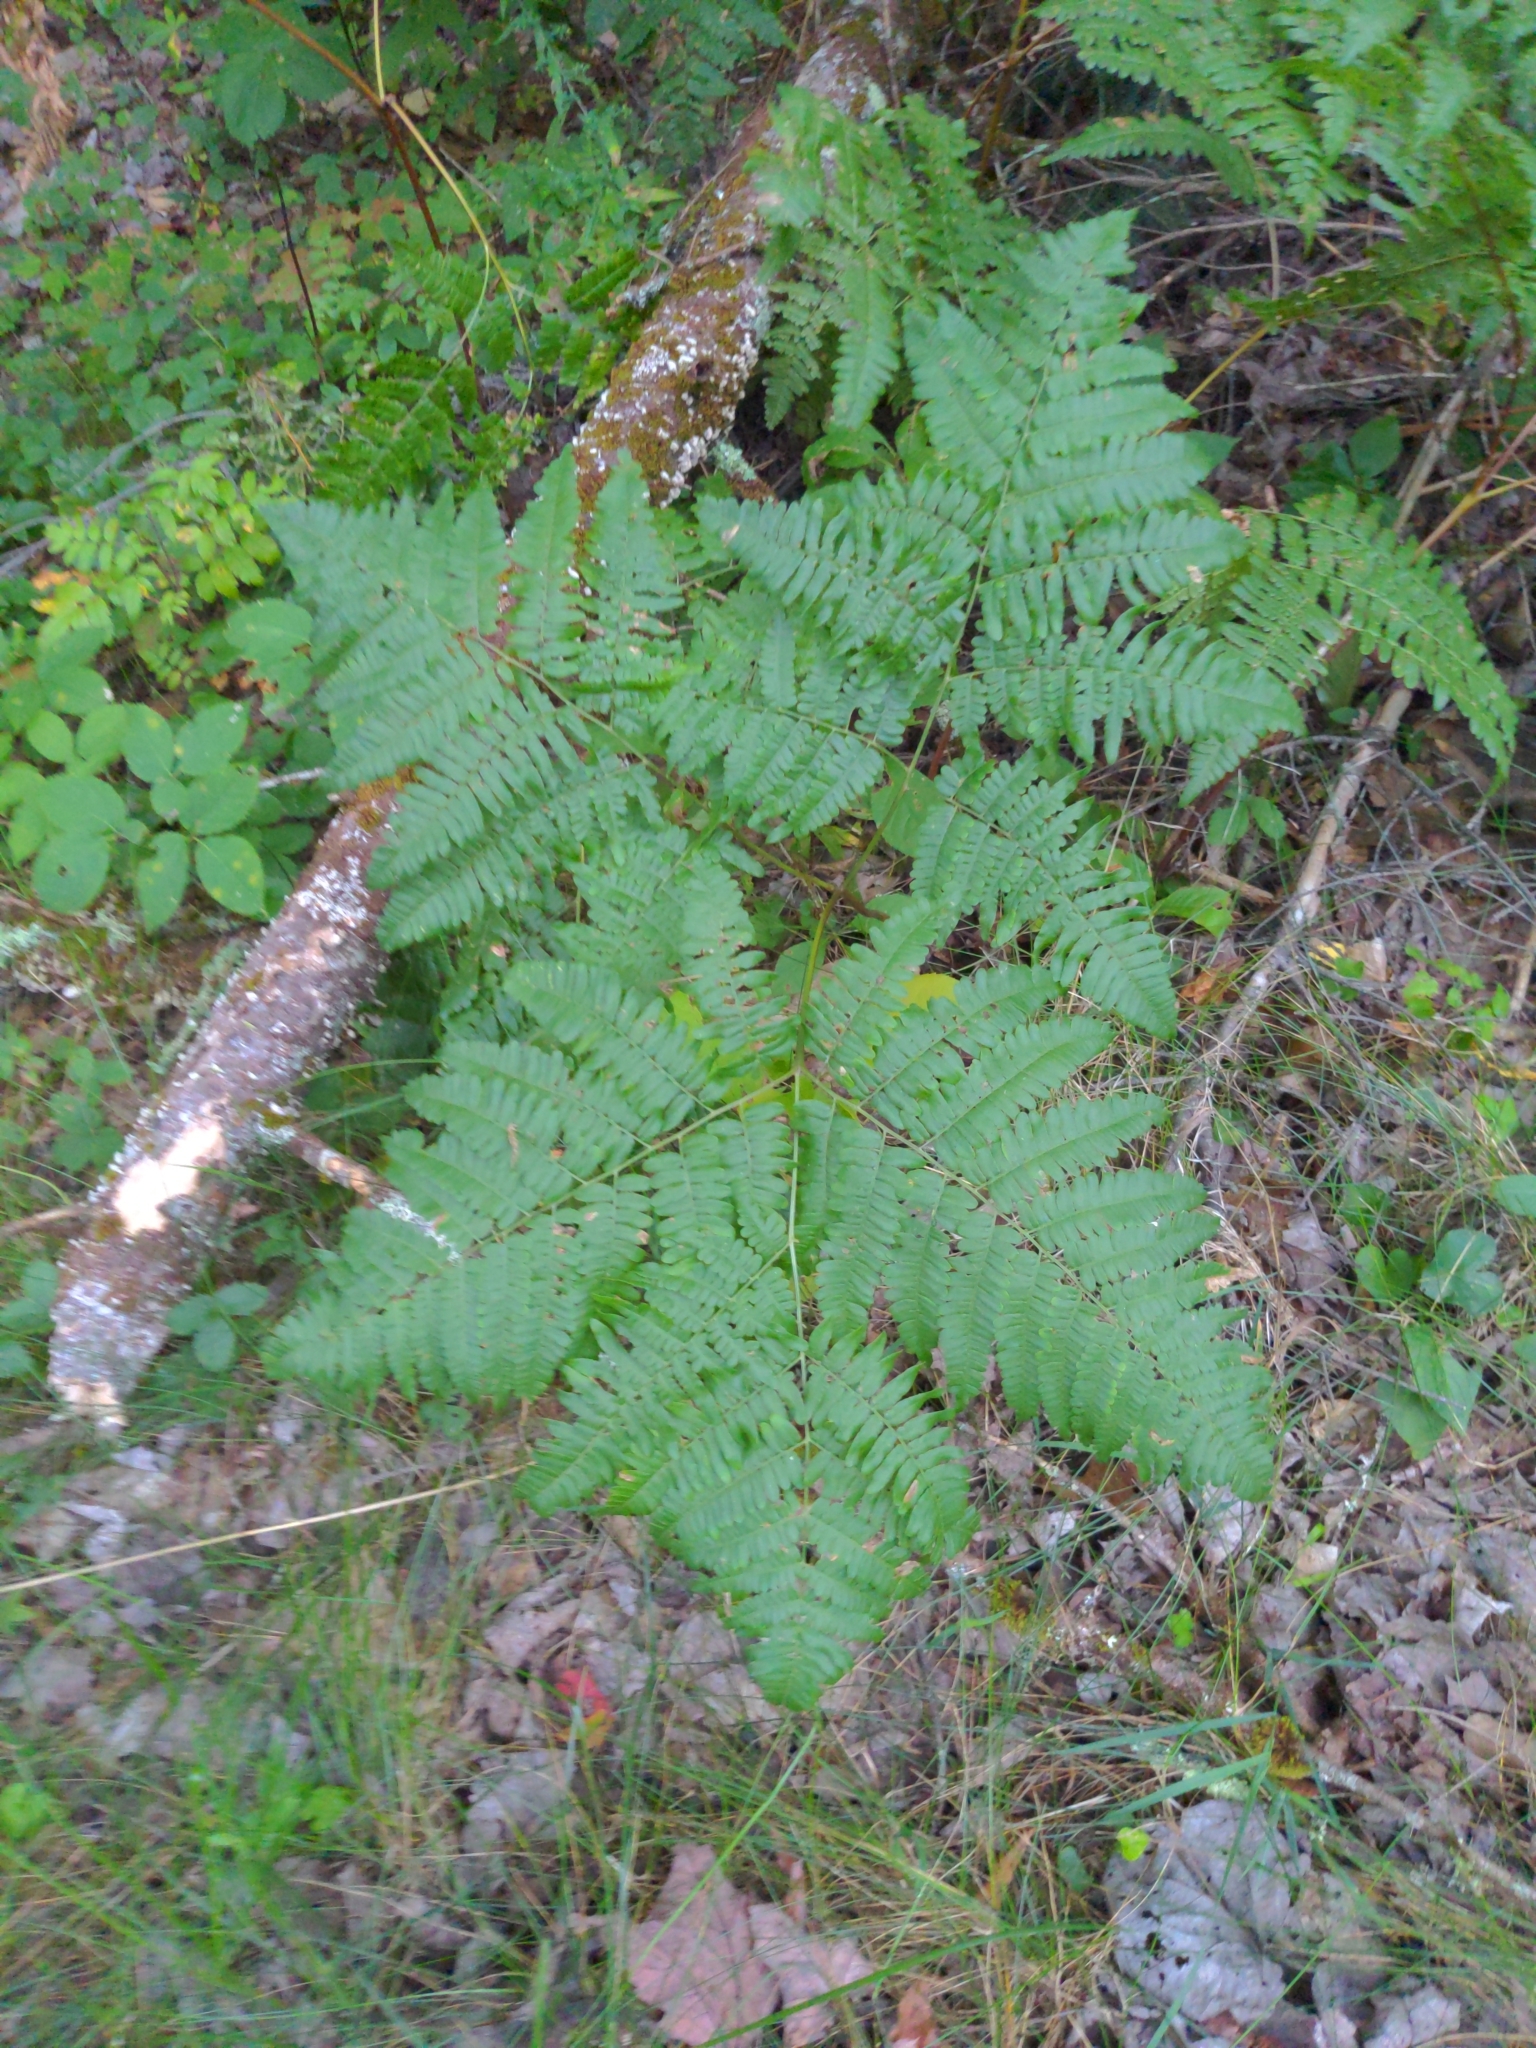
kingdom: Plantae
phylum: Tracheophyta
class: Polypodiopsida
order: Polypodiales
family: Dennstaedtiaceae
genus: Pteridium
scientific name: Pteridium aquilinum
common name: Bracken
